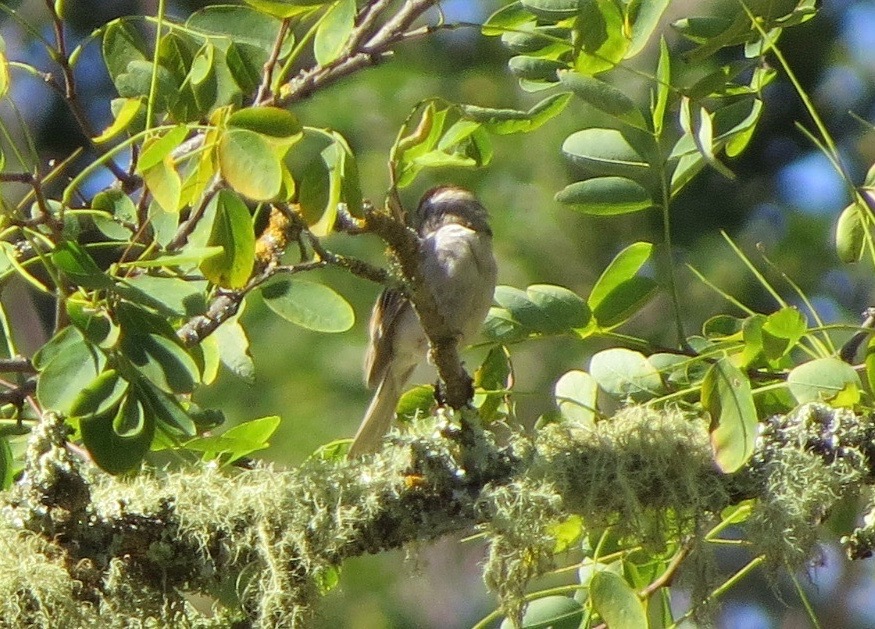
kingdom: Animalia
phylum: Chordata
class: Aves
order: Passeriformes
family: Passerellidae
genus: Spizella
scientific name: Spizella passerina
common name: Chipping sparrow
